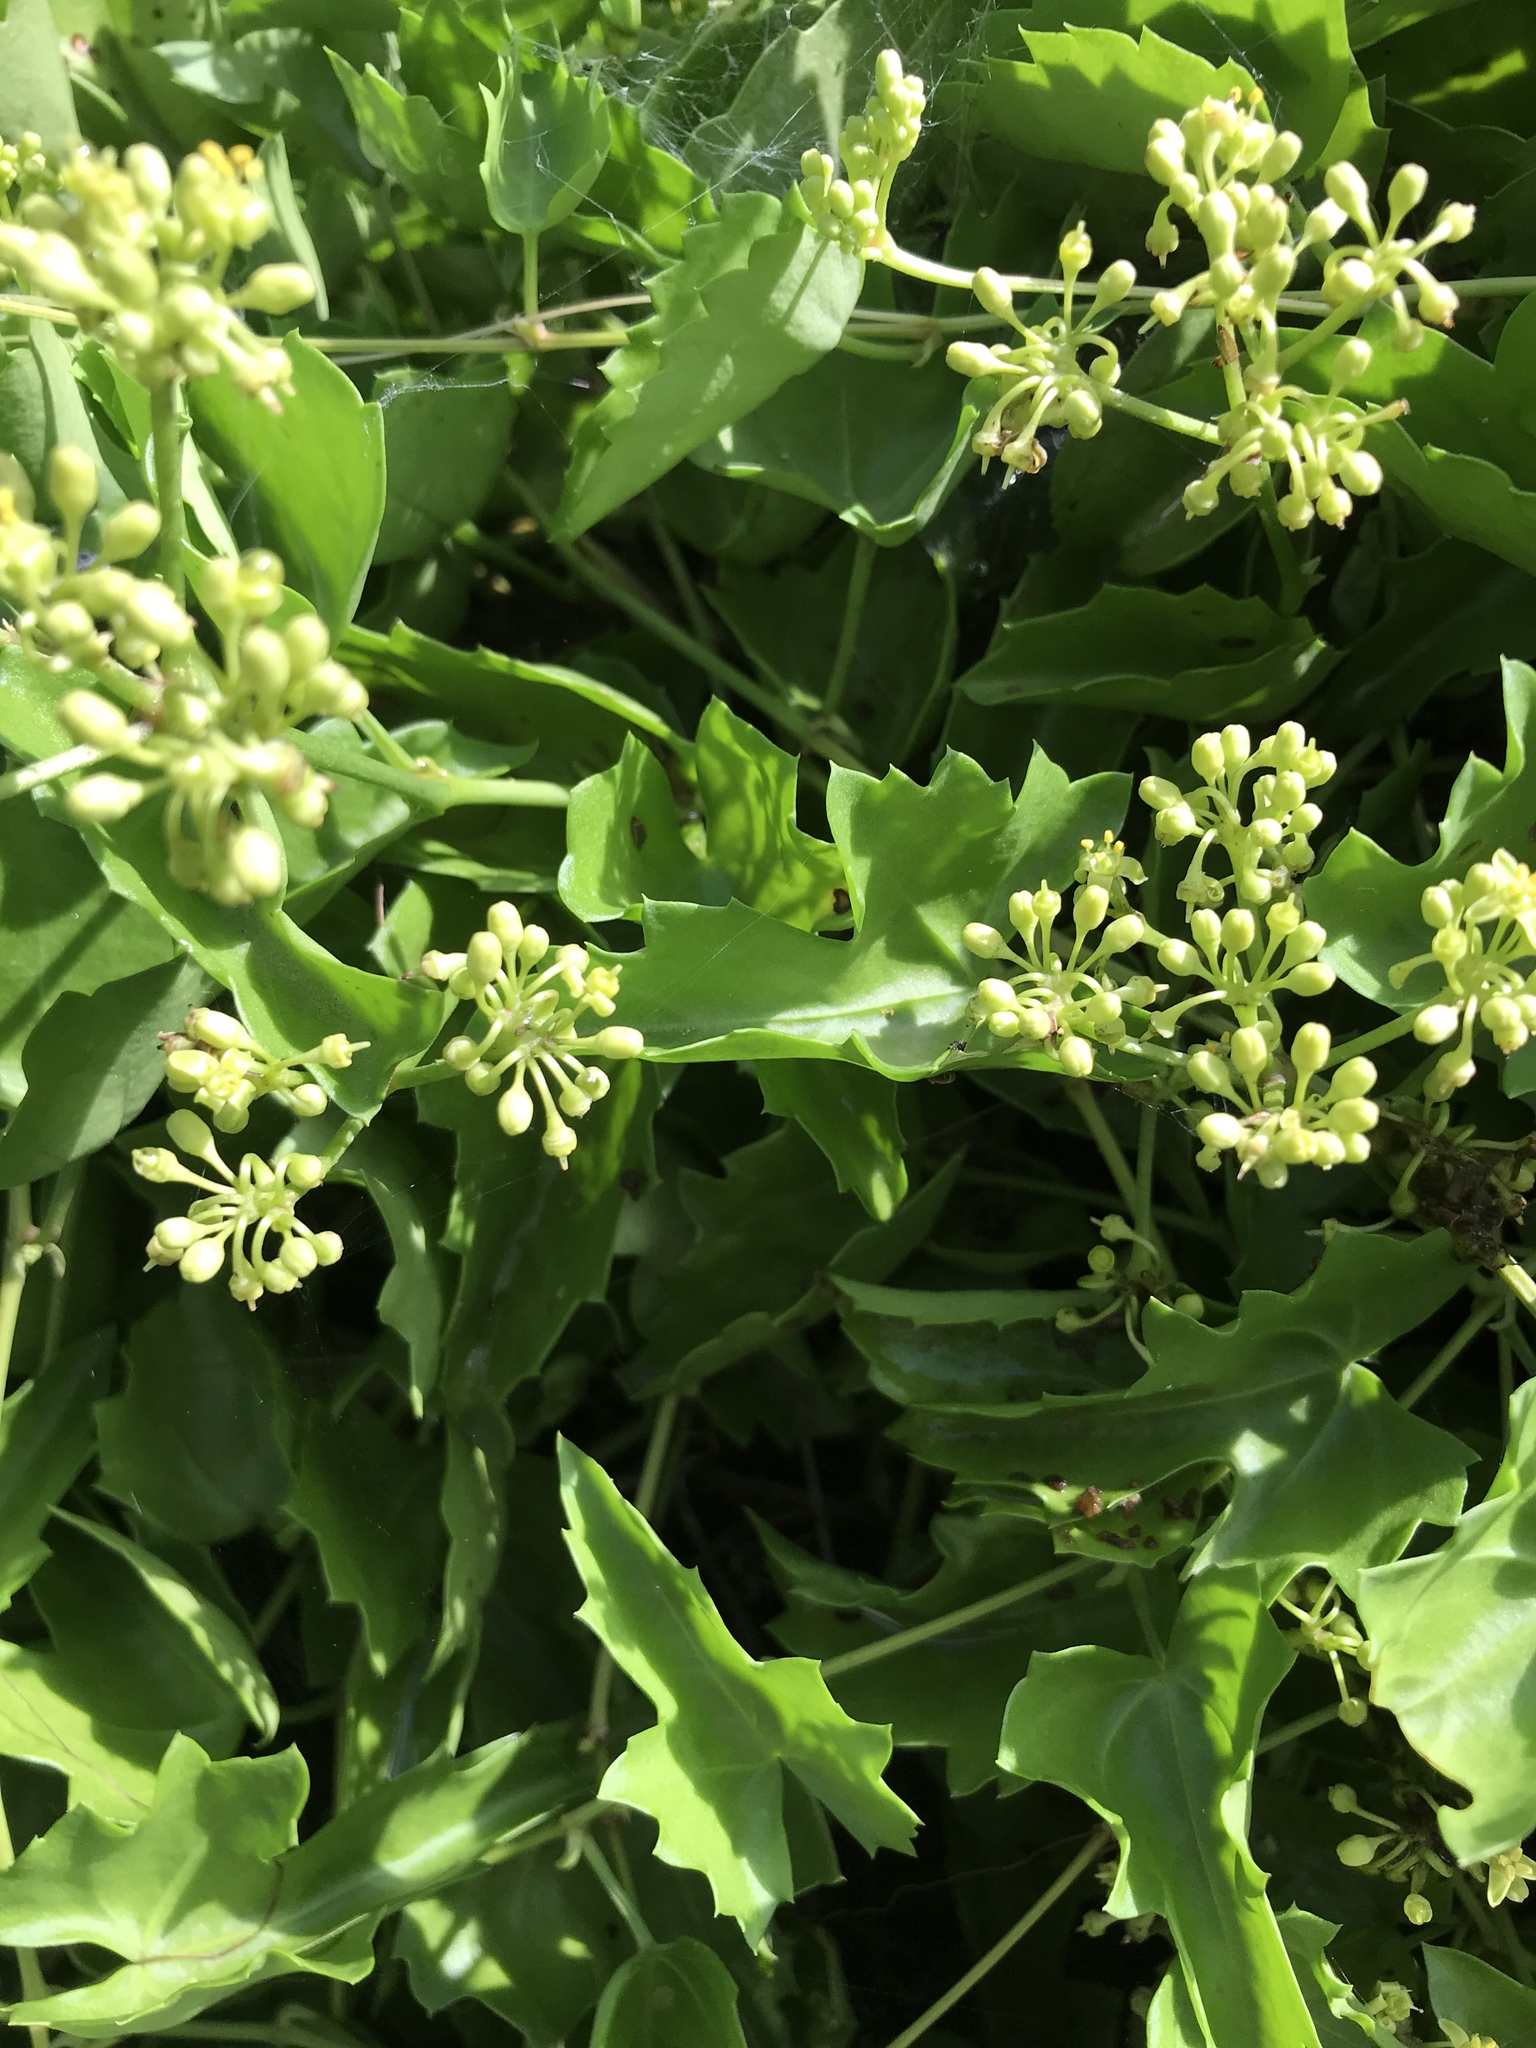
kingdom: Plantae
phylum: Tracheophyta
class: Magnoliopsida
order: Vitales
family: Vitaceae
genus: Cissus
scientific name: Cissus trifoliata
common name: Vine-sorrel
